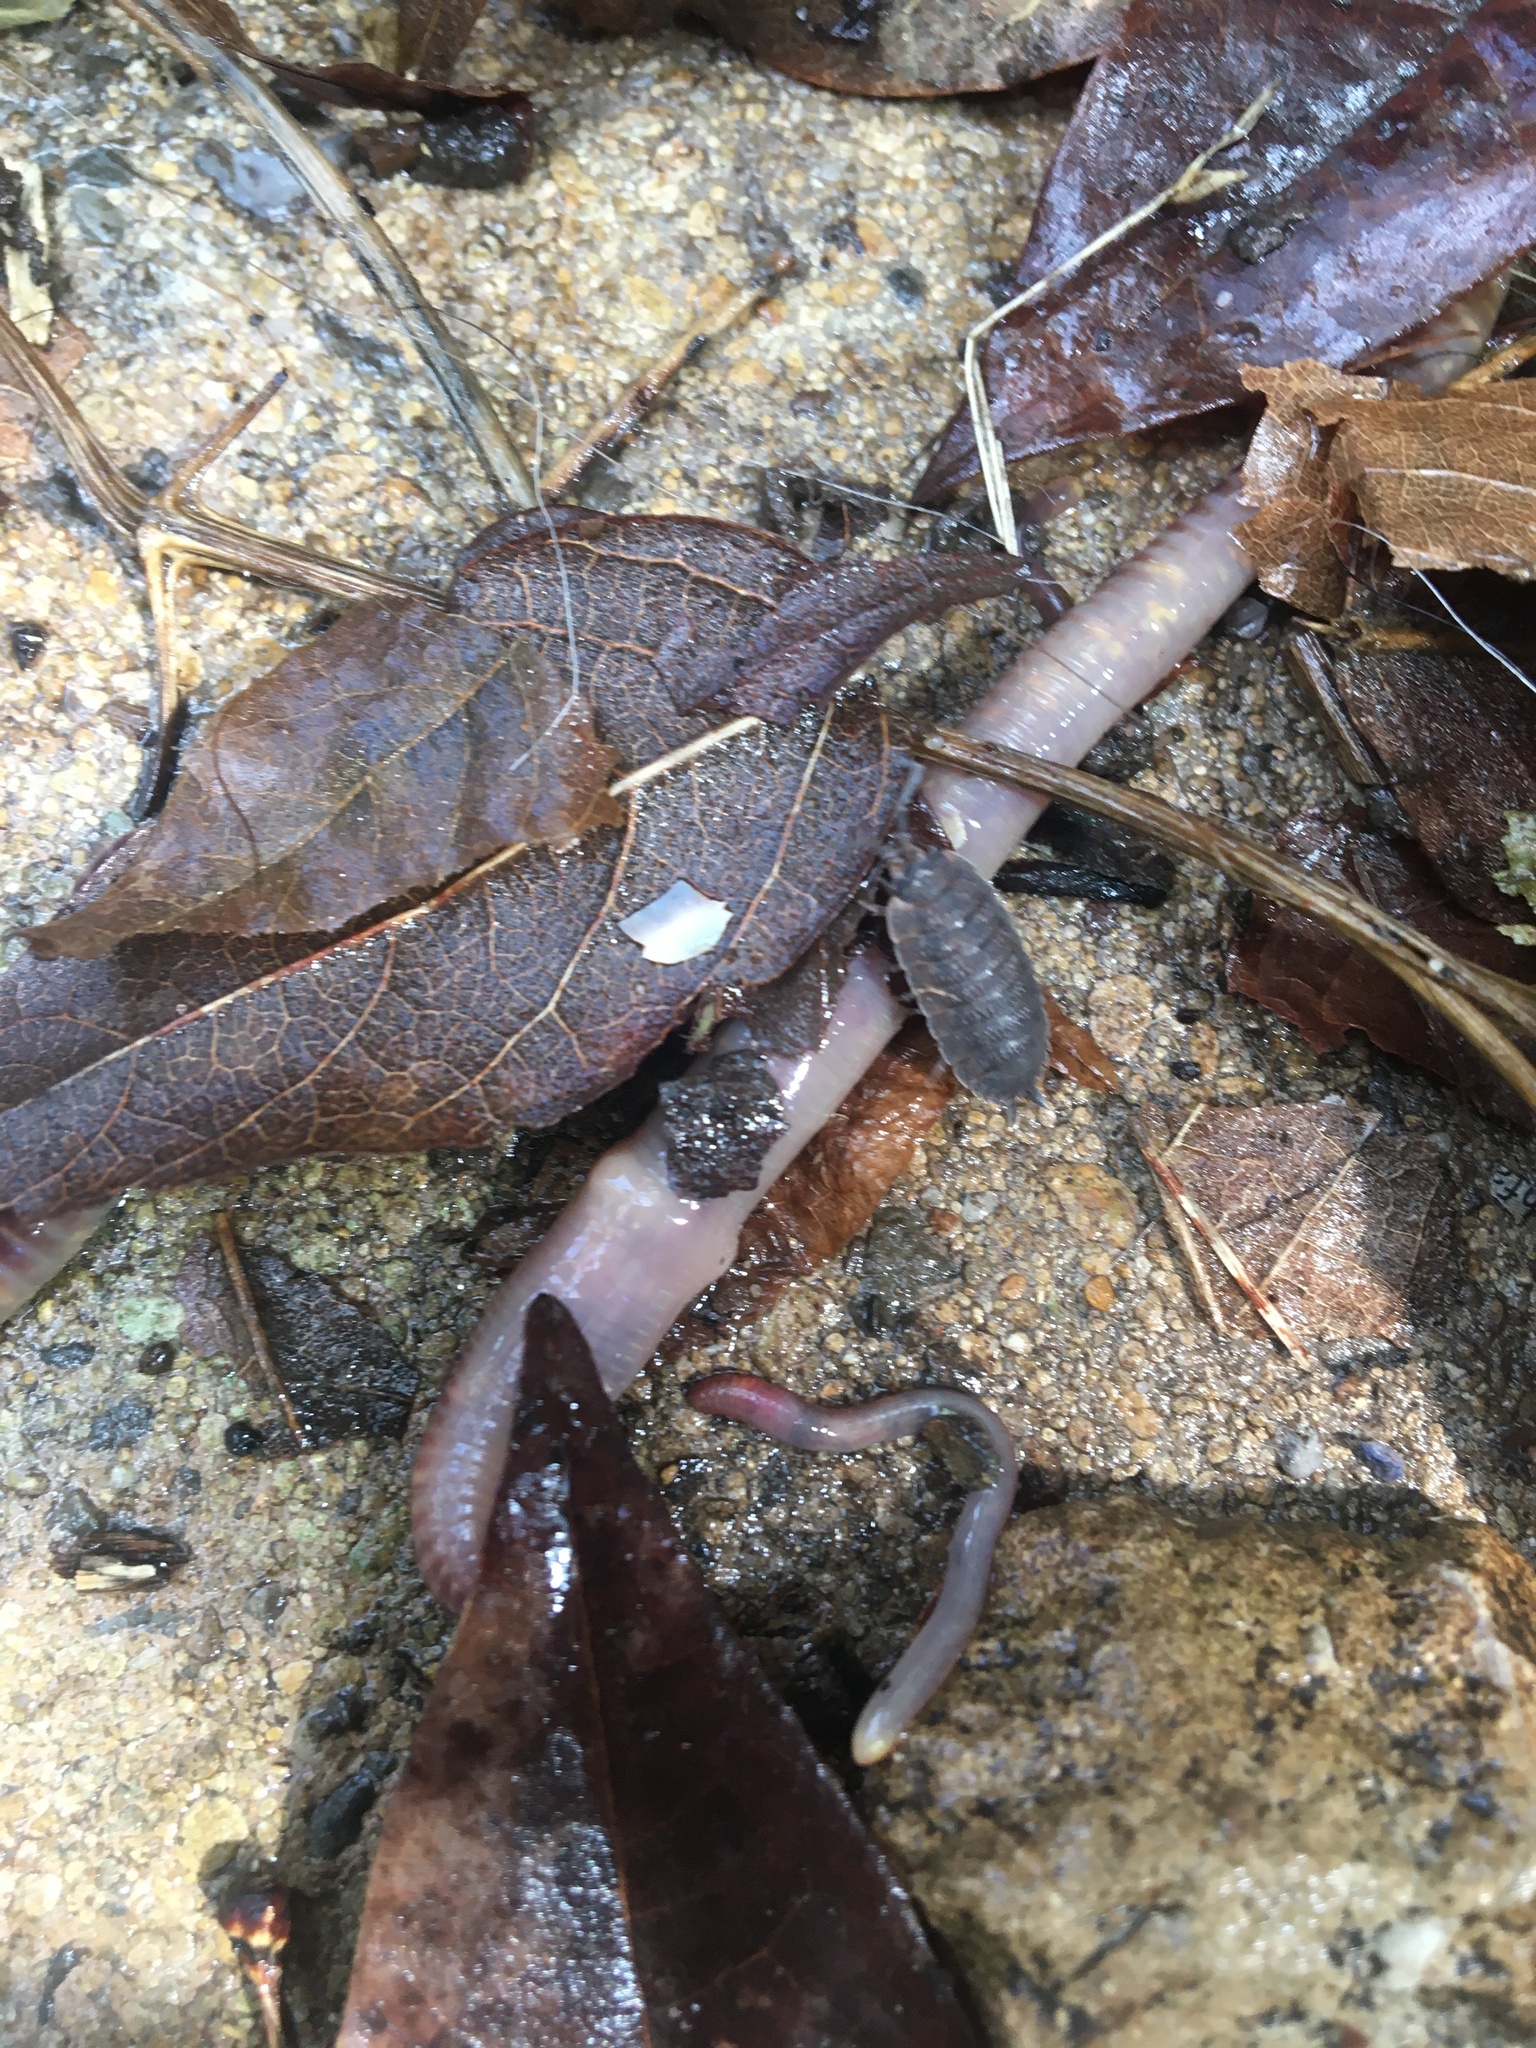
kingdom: Animalia
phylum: Arthropoda
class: Malacostraca
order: Isopoda
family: Porcellionidae
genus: Porcellio
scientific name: Porcellio scaber
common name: Common rough woodlouse
